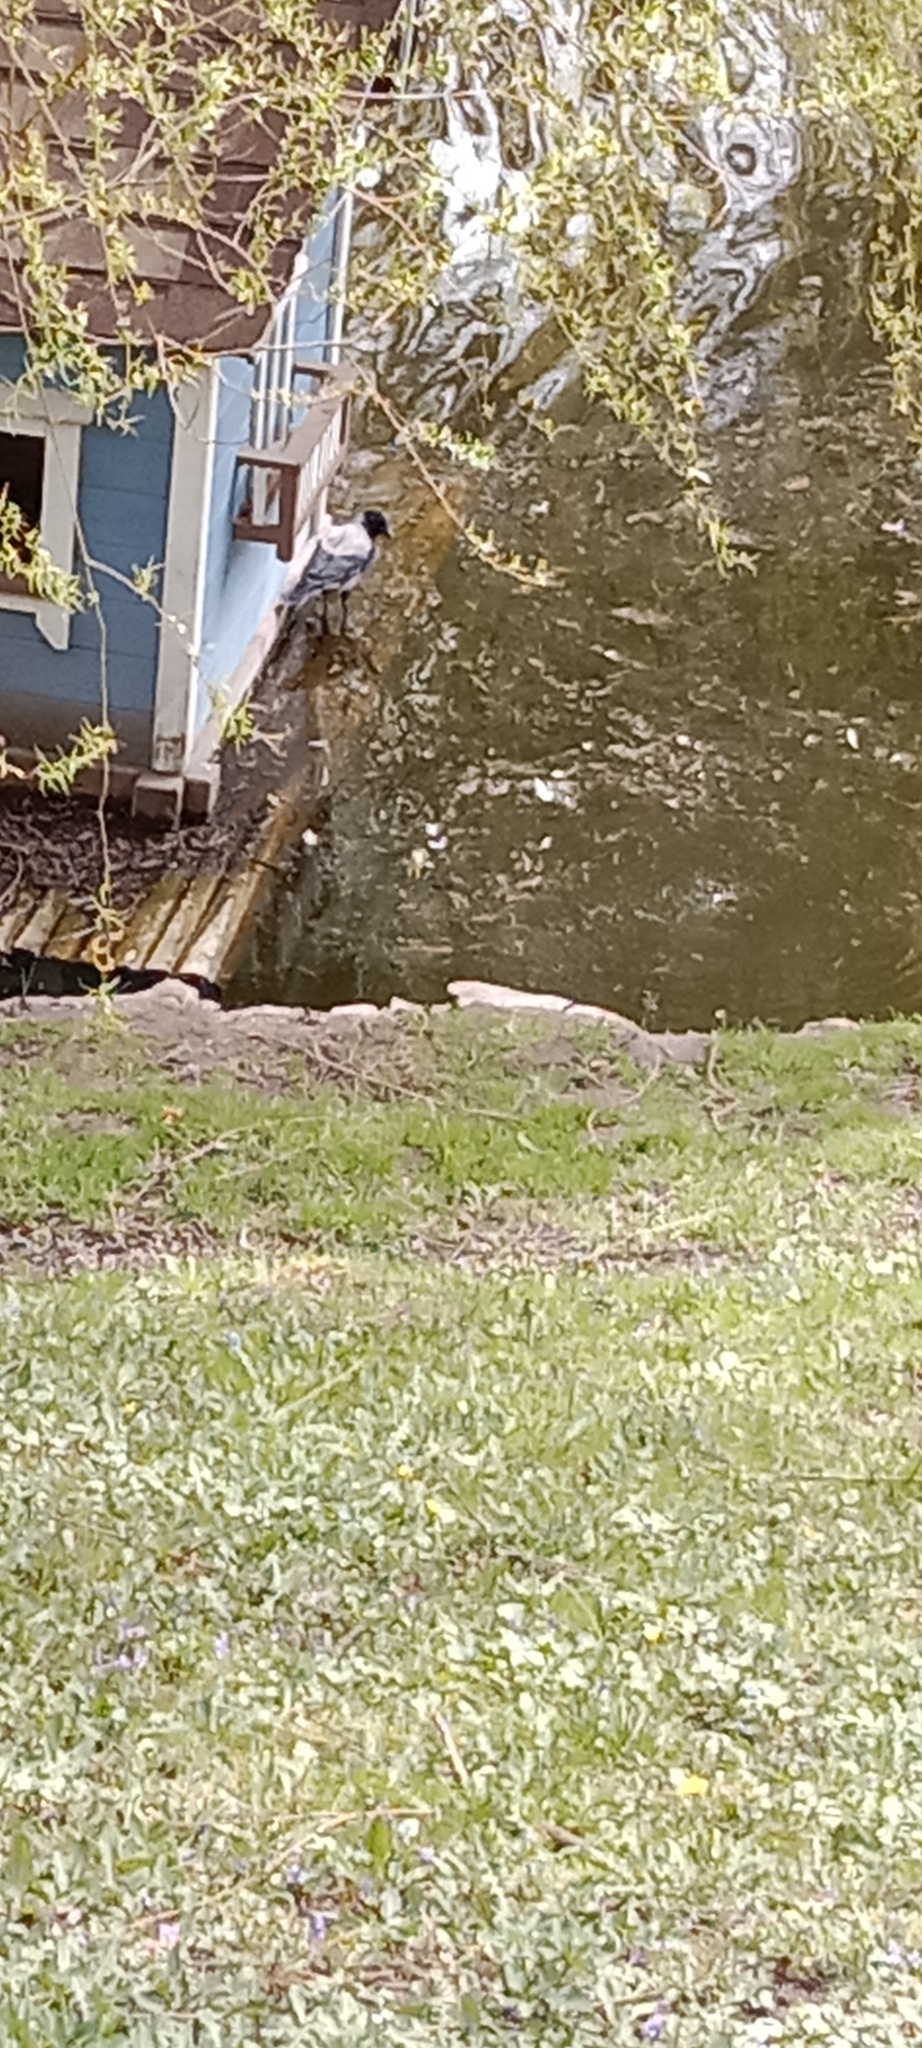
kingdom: Animalia
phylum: Chordata
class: Aves
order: Passeriformes
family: Corvidae
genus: Corvus
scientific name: Corvus cornix
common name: Hooded crow
